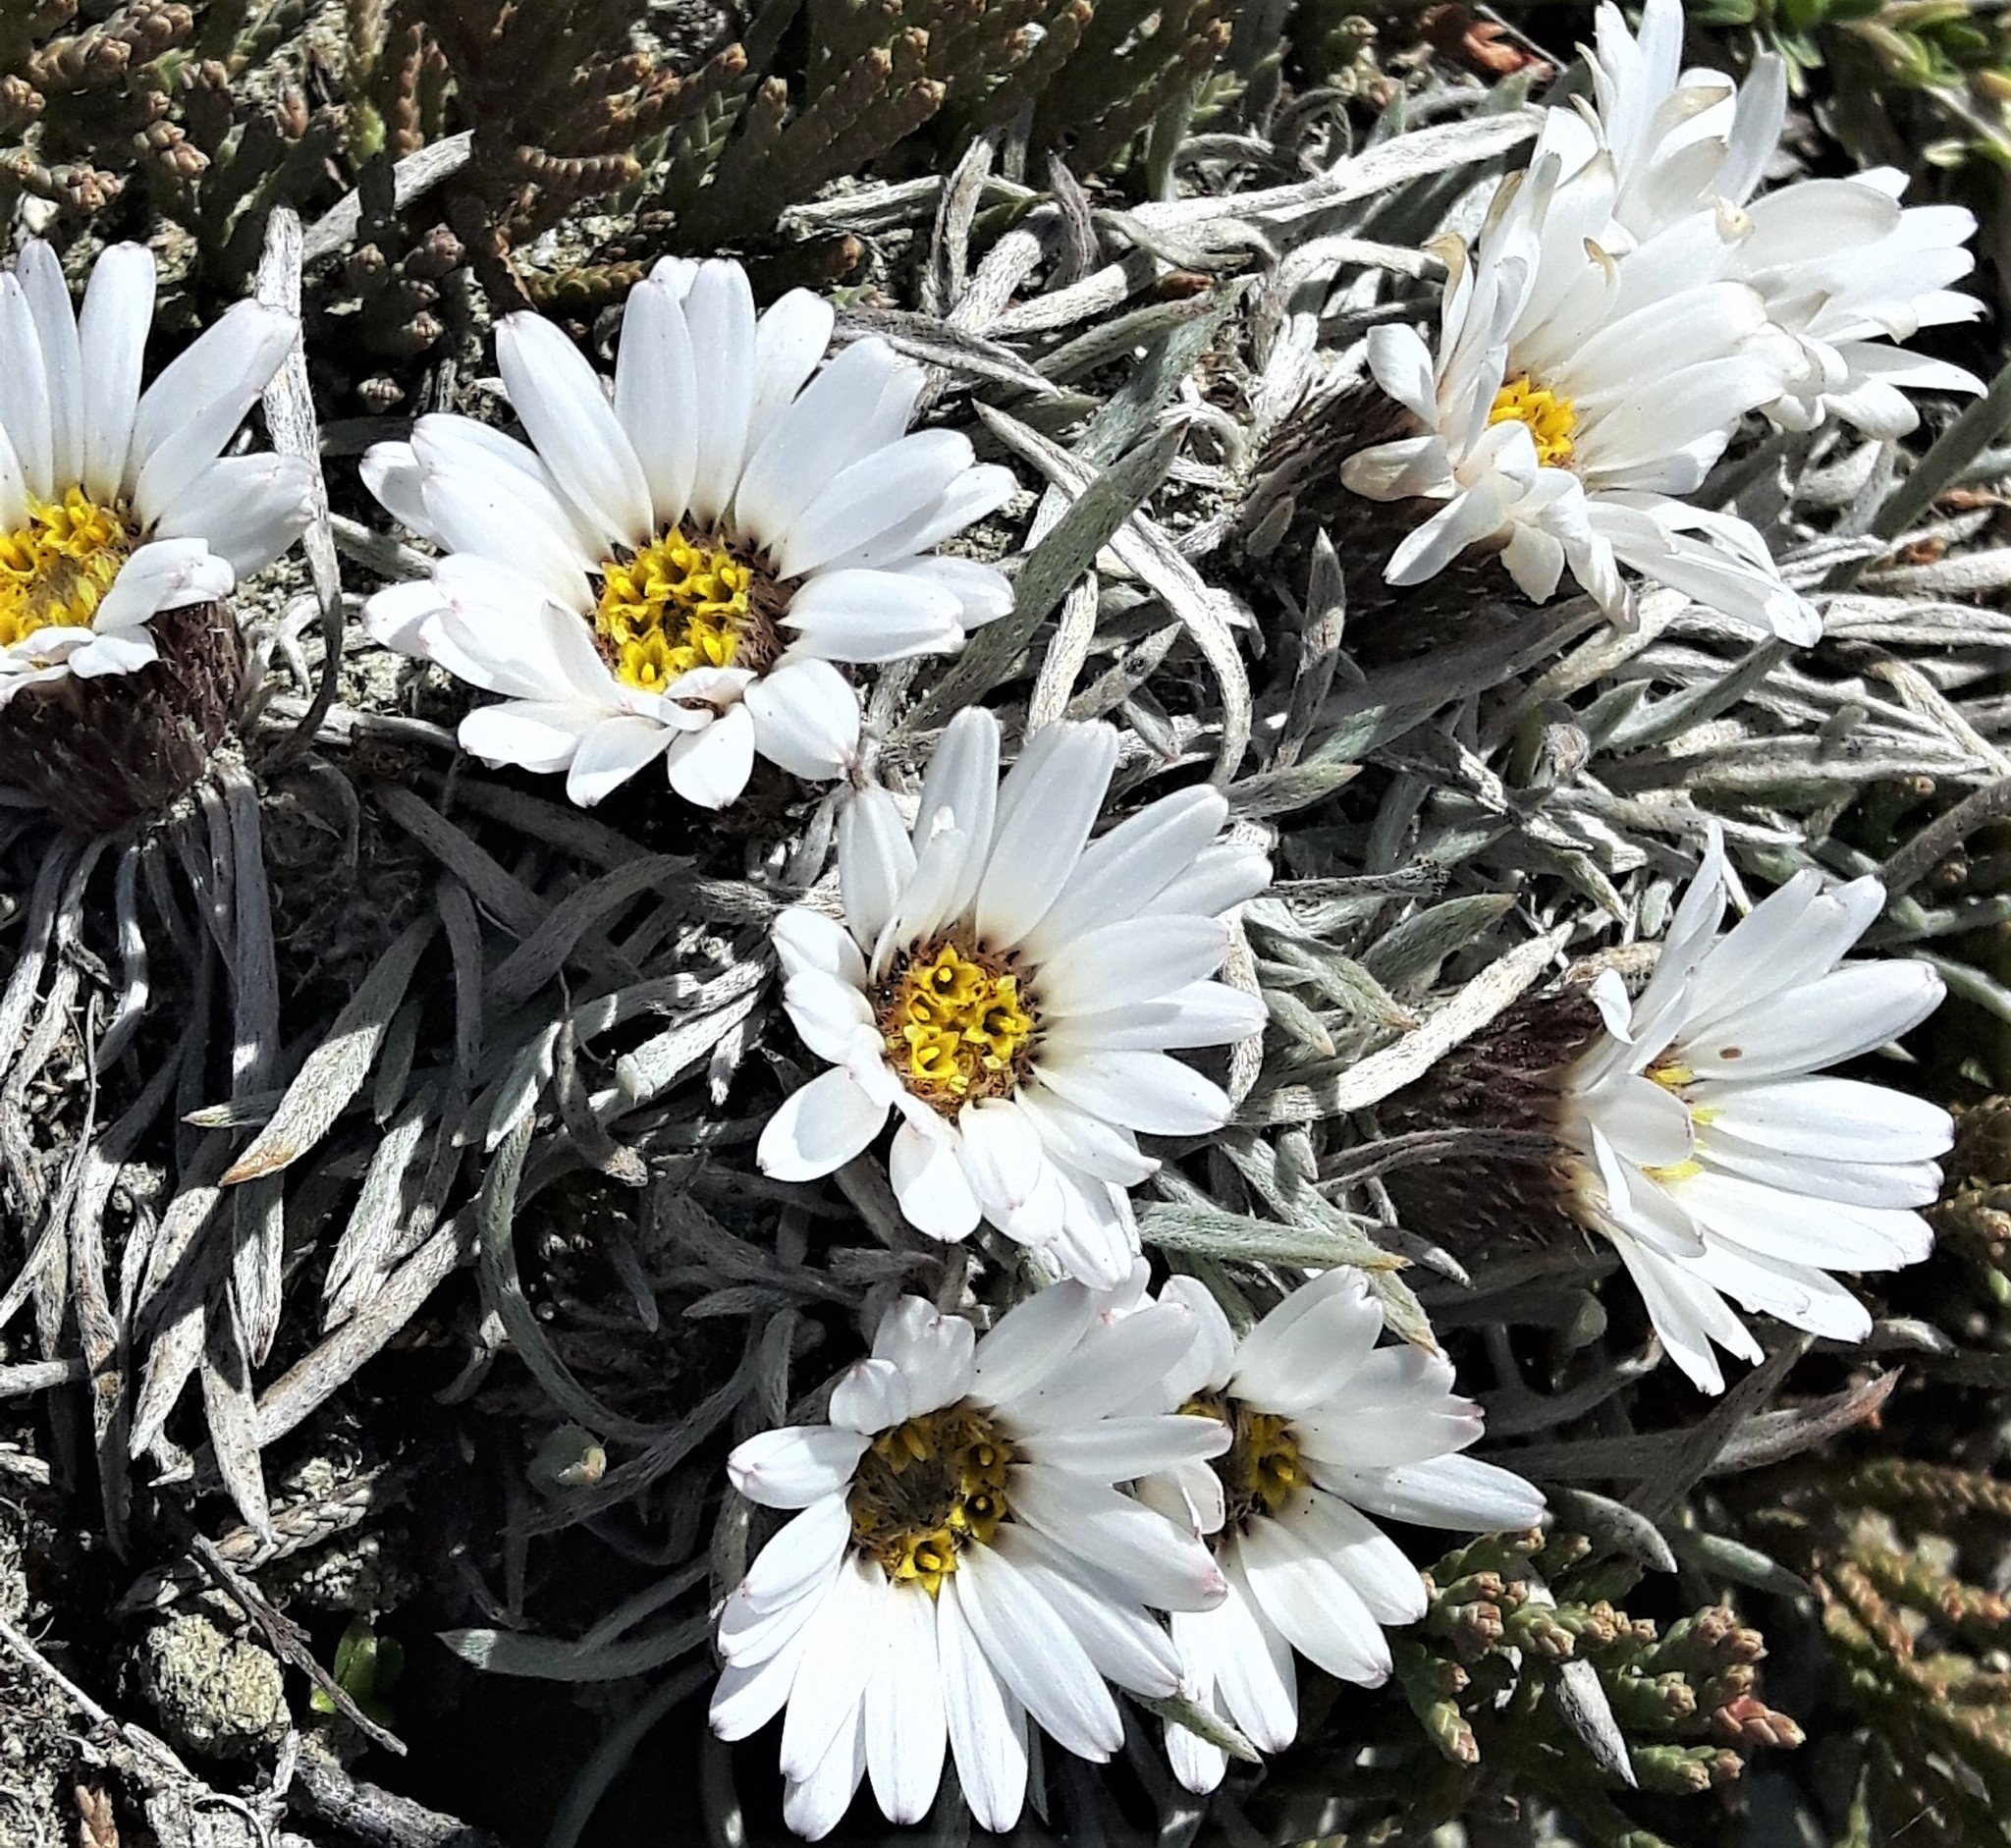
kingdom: Plantae
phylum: Tracheophyta
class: Magnoliopsida
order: Asterales
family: Asteraceae
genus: Townsendia
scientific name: Townsendia hookeri
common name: Hooker's townsend daisy
